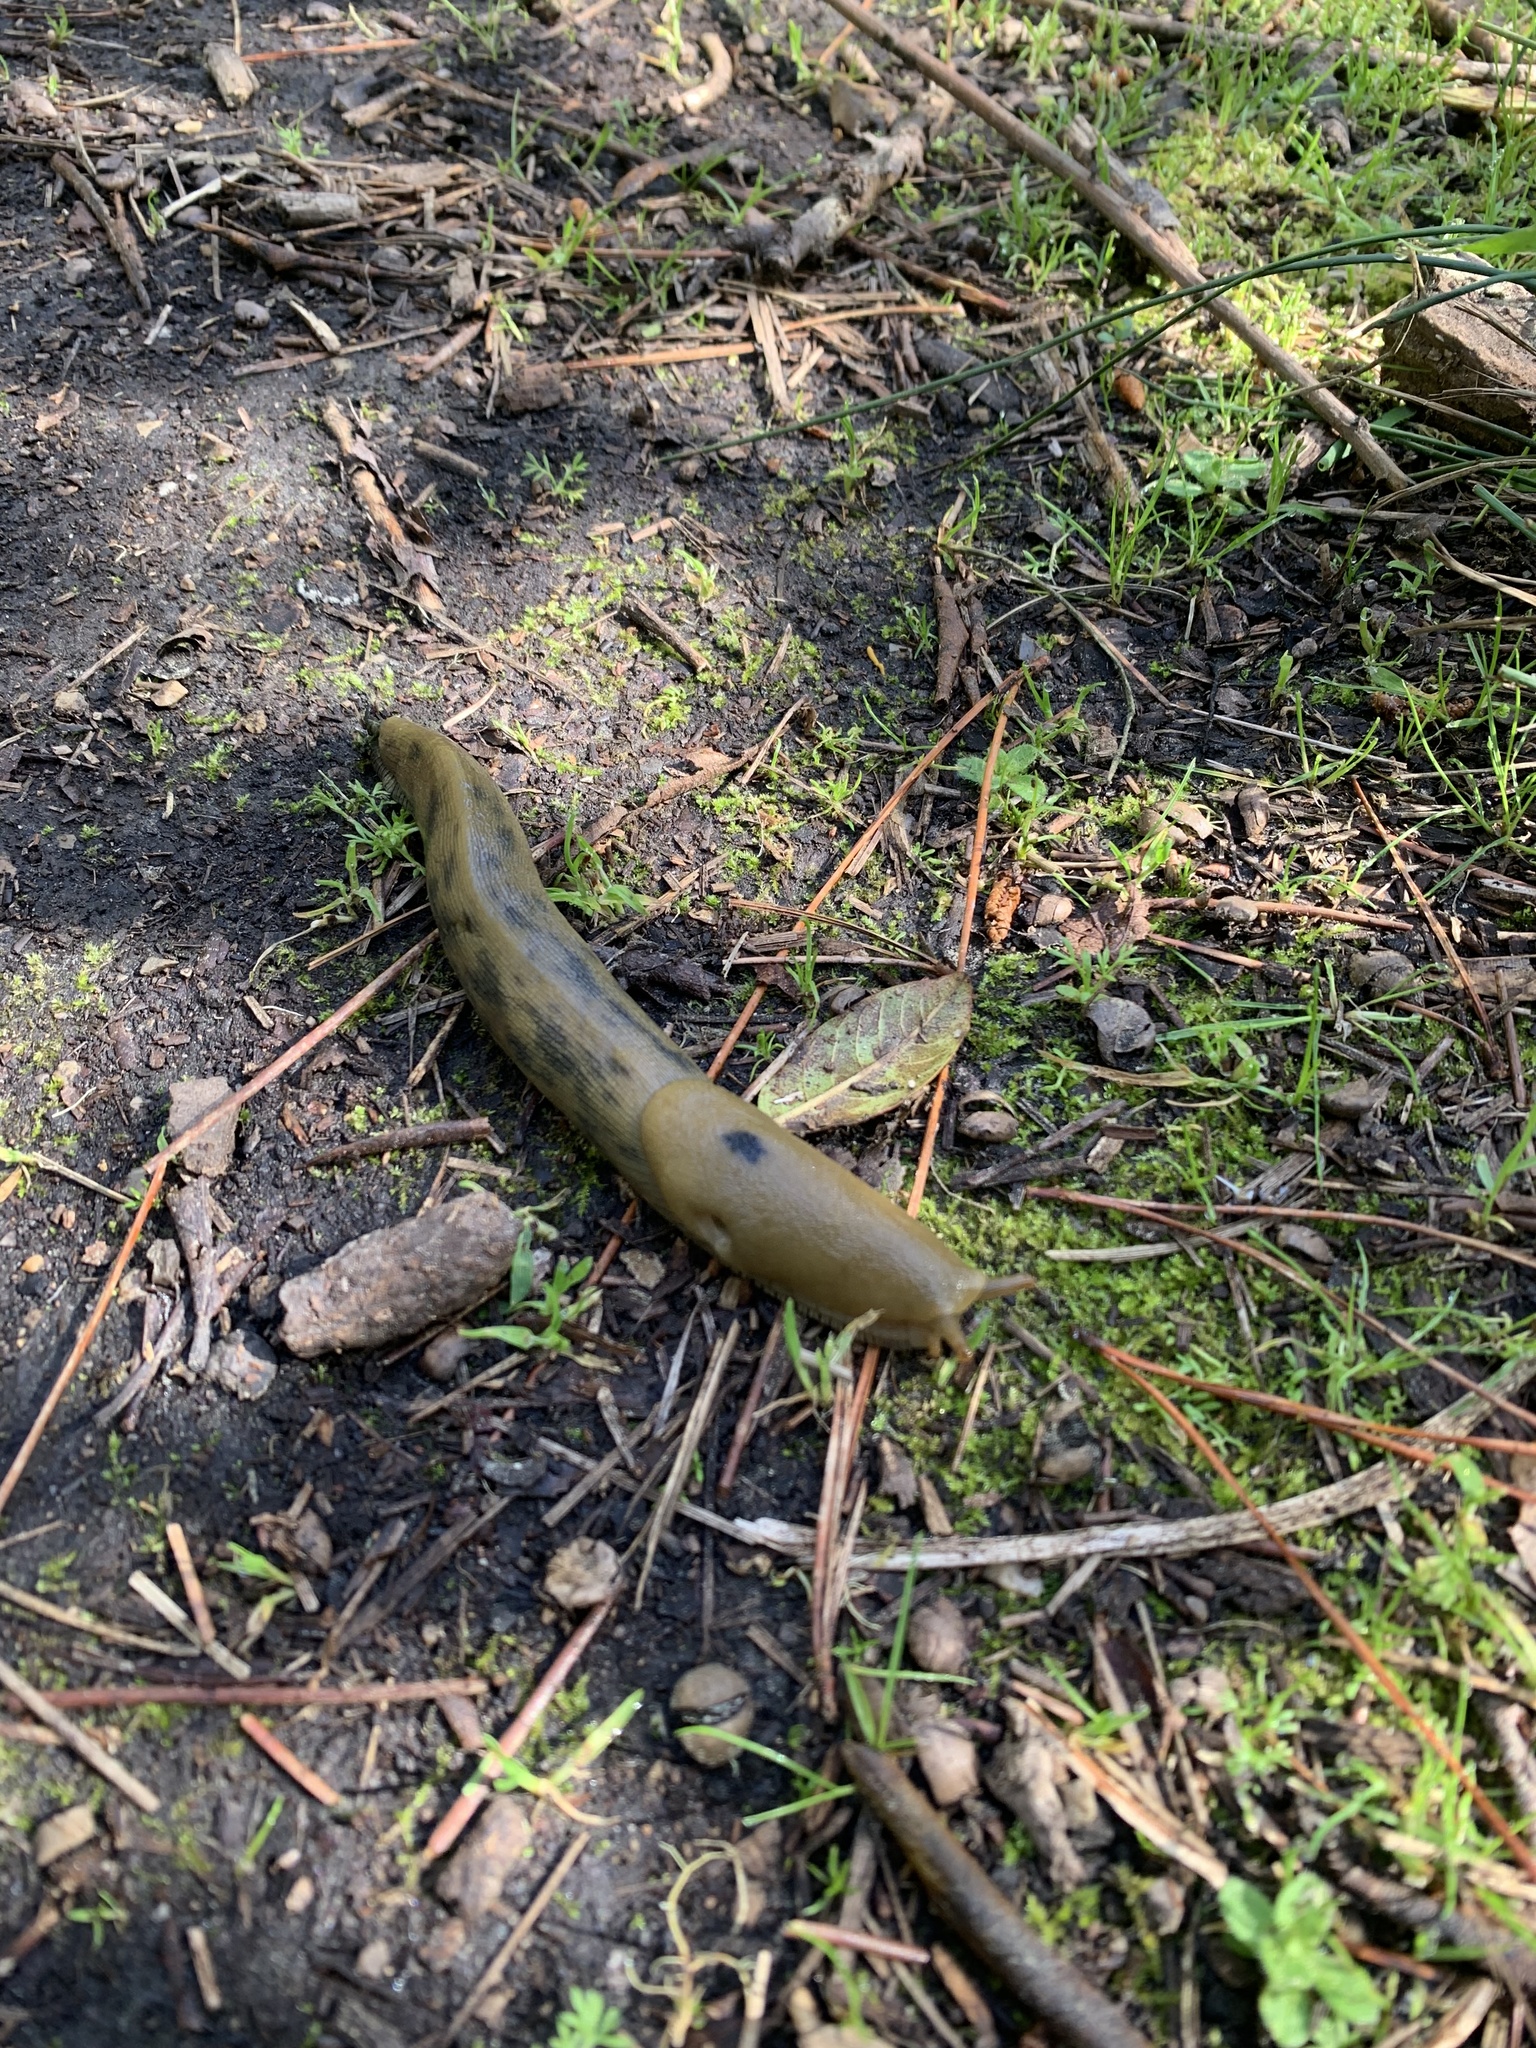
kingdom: Animalia
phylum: Mollusca
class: Gastropoda
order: Stylommatophora
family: Ariolimacidae
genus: Ariolimax
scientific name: Ariolimax buttoni
